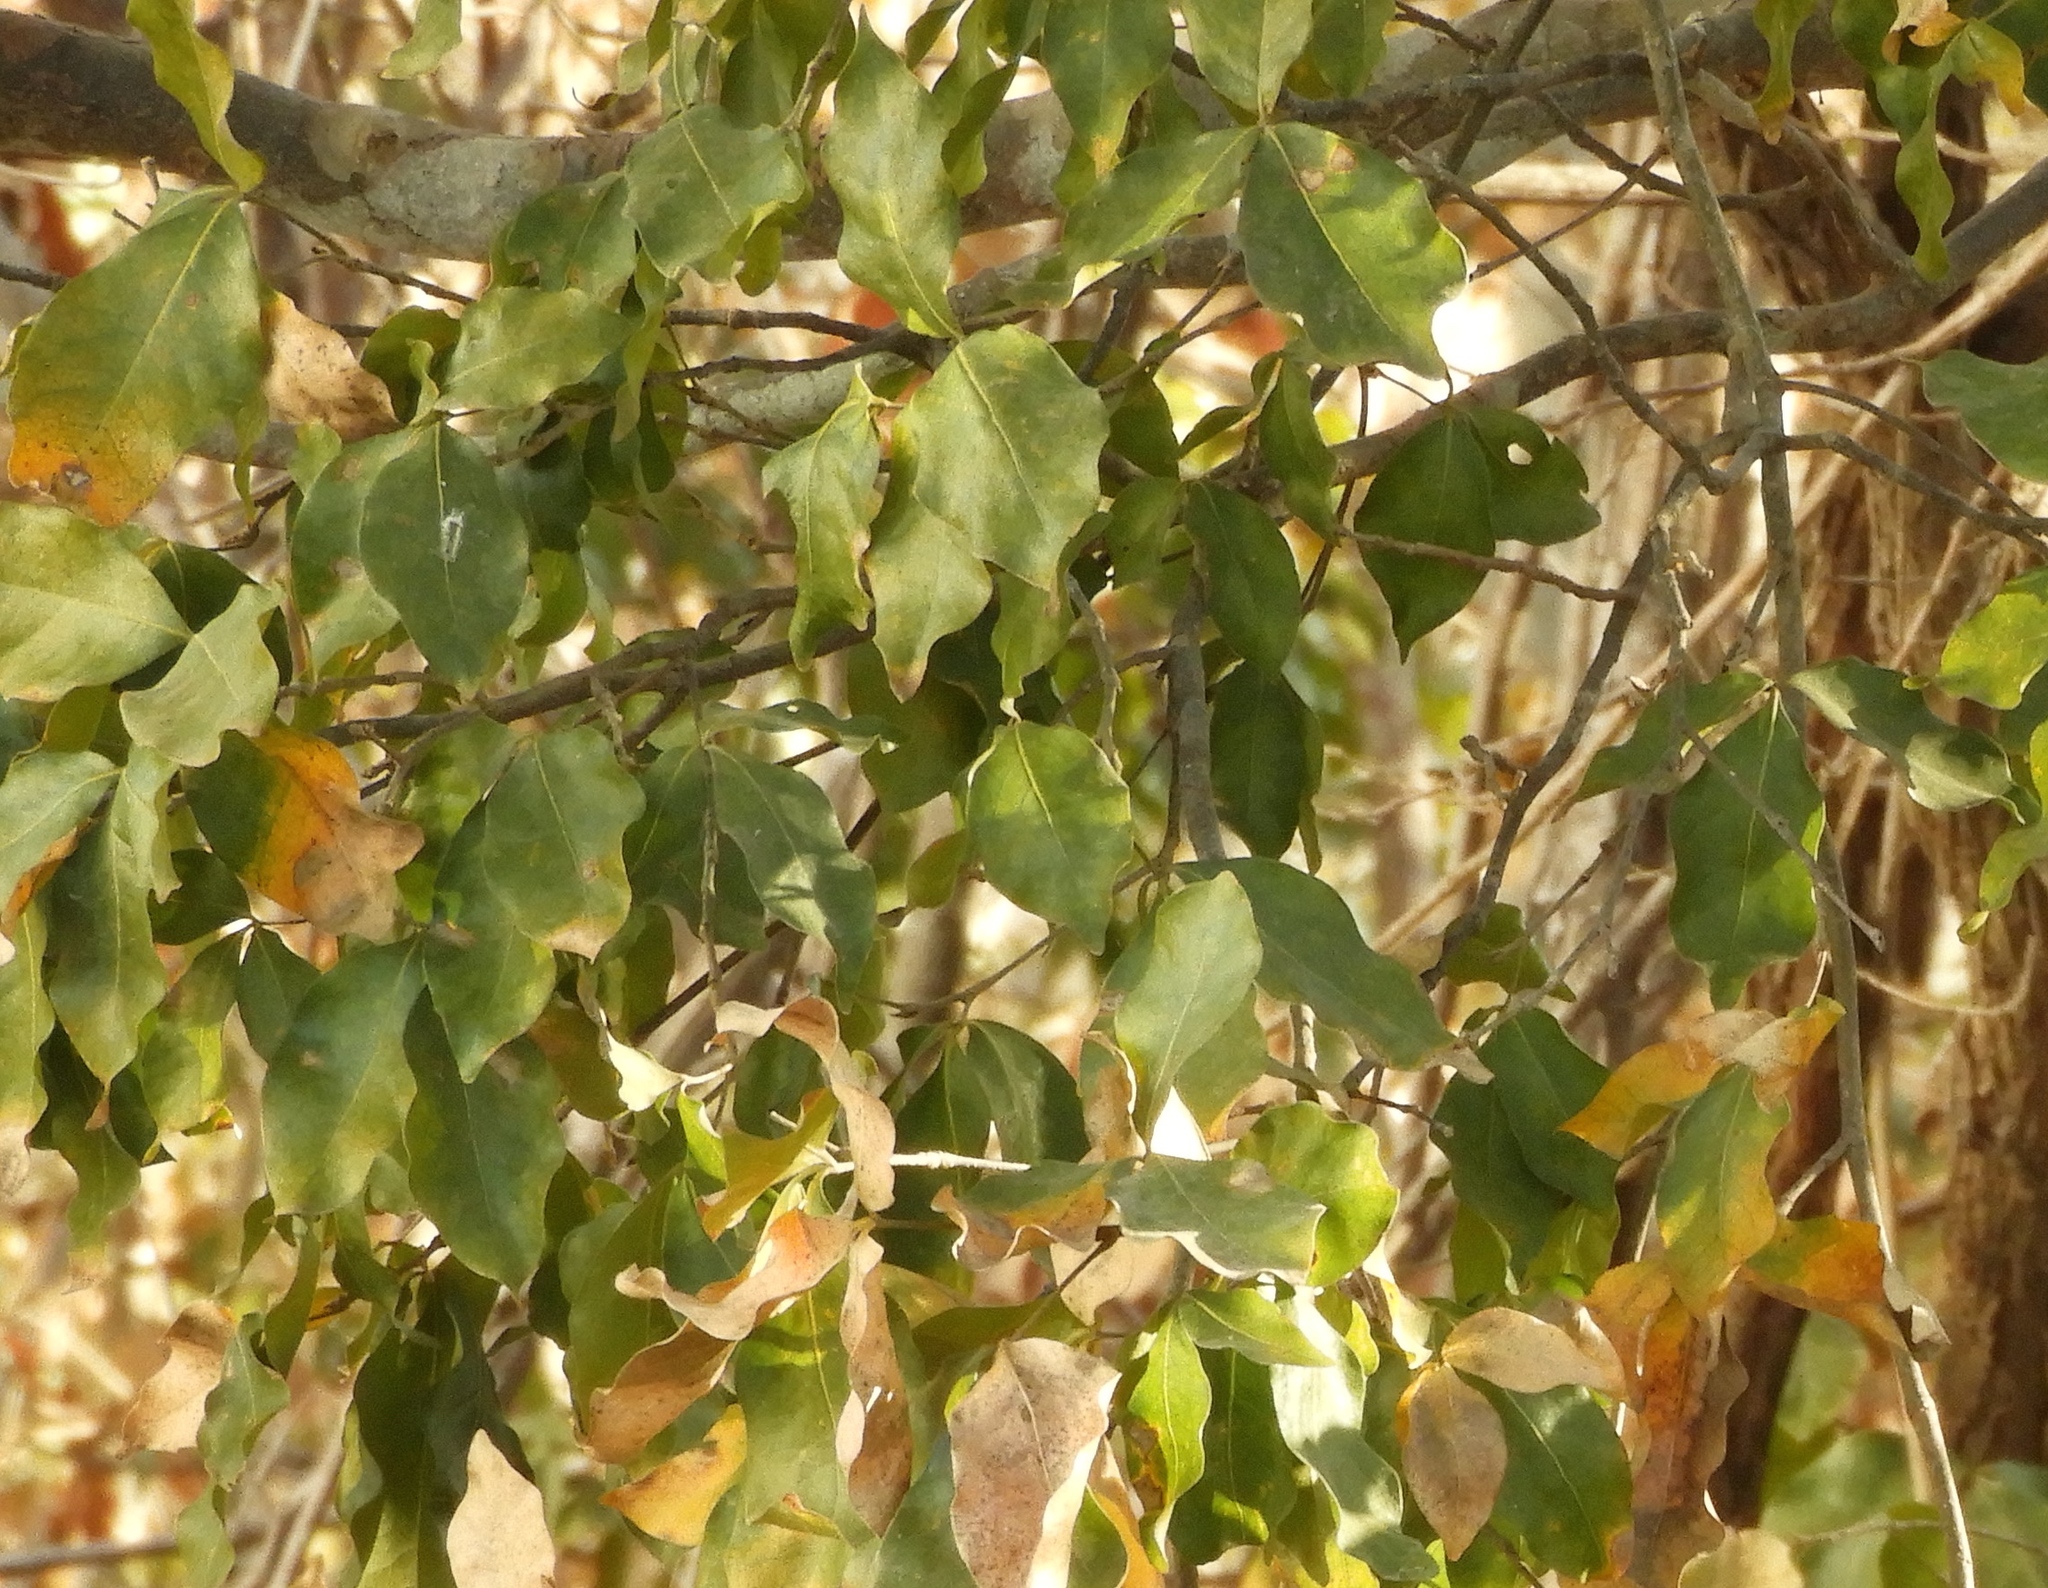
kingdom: Plantae
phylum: Tracheophyta
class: Magnoliopsida
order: Malpighiales
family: Picrodendraceae
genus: Piranhea
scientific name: Piranhea mexicana
